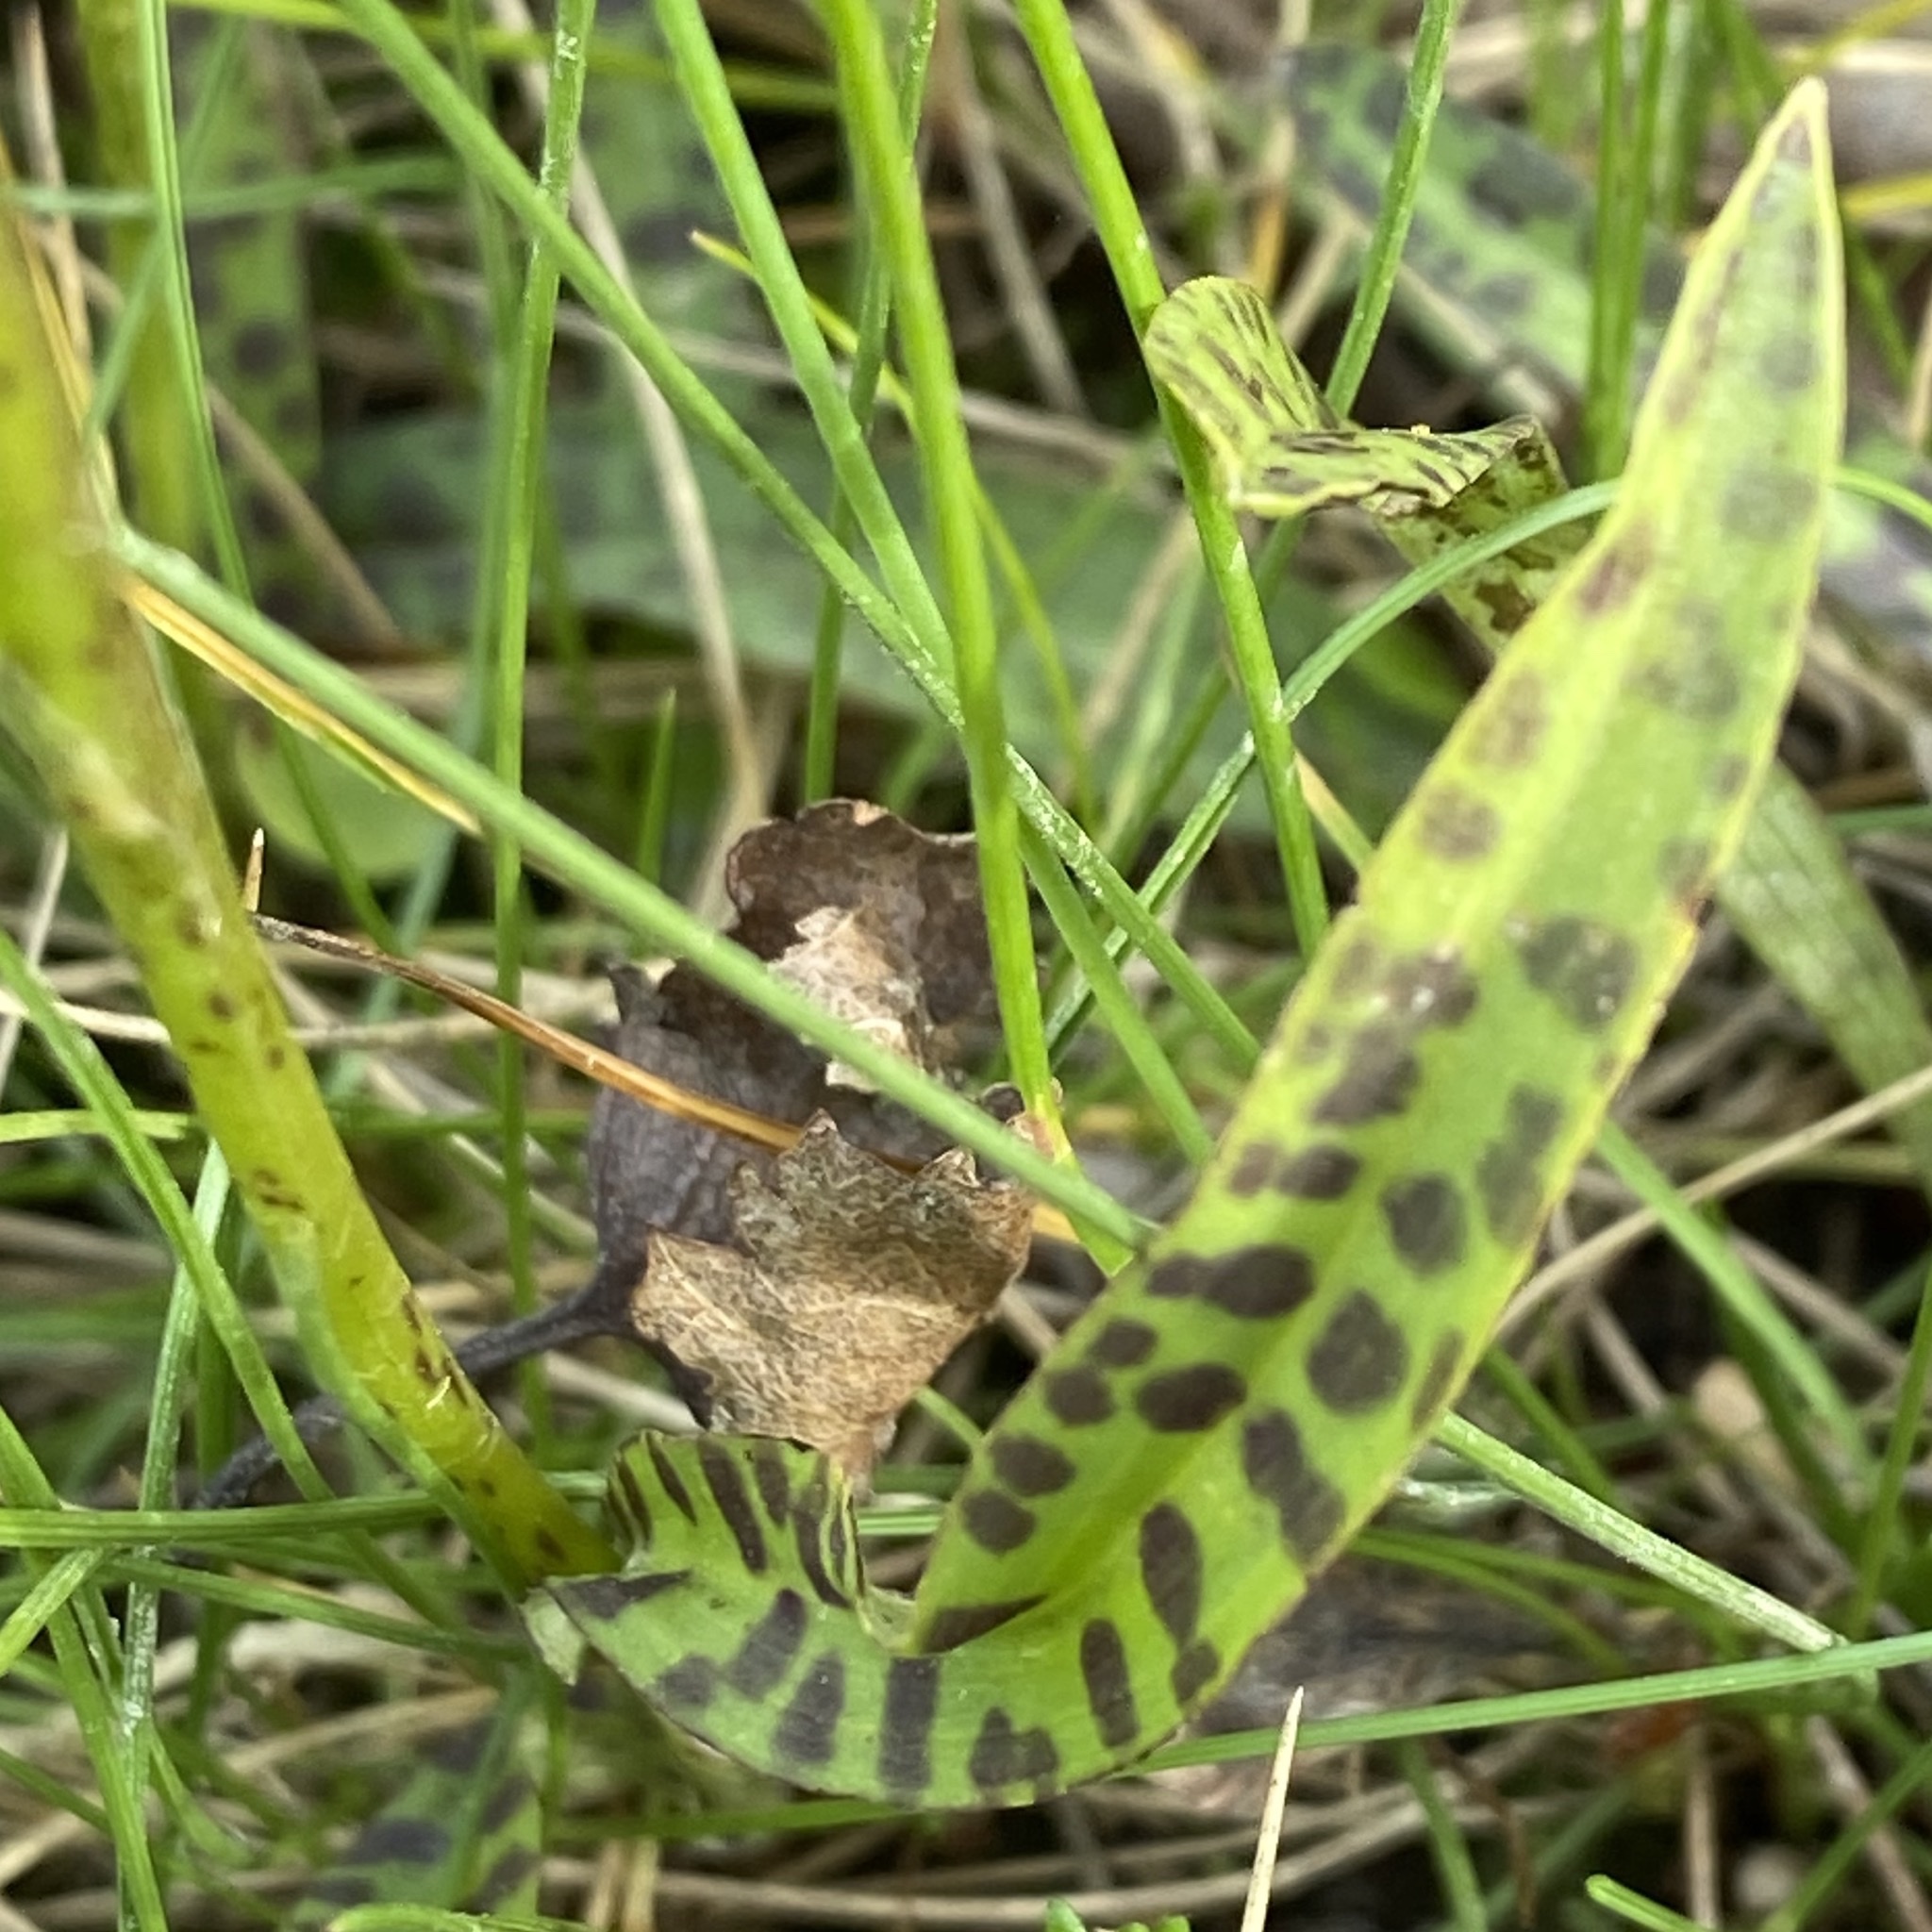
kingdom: Plantae
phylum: Tracheophyta
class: Liliopsida
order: Asparagales
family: Orchidaceae
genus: Dactylorhiza
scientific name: Dactylorhiza maculata
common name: Heath spotted-orchid
